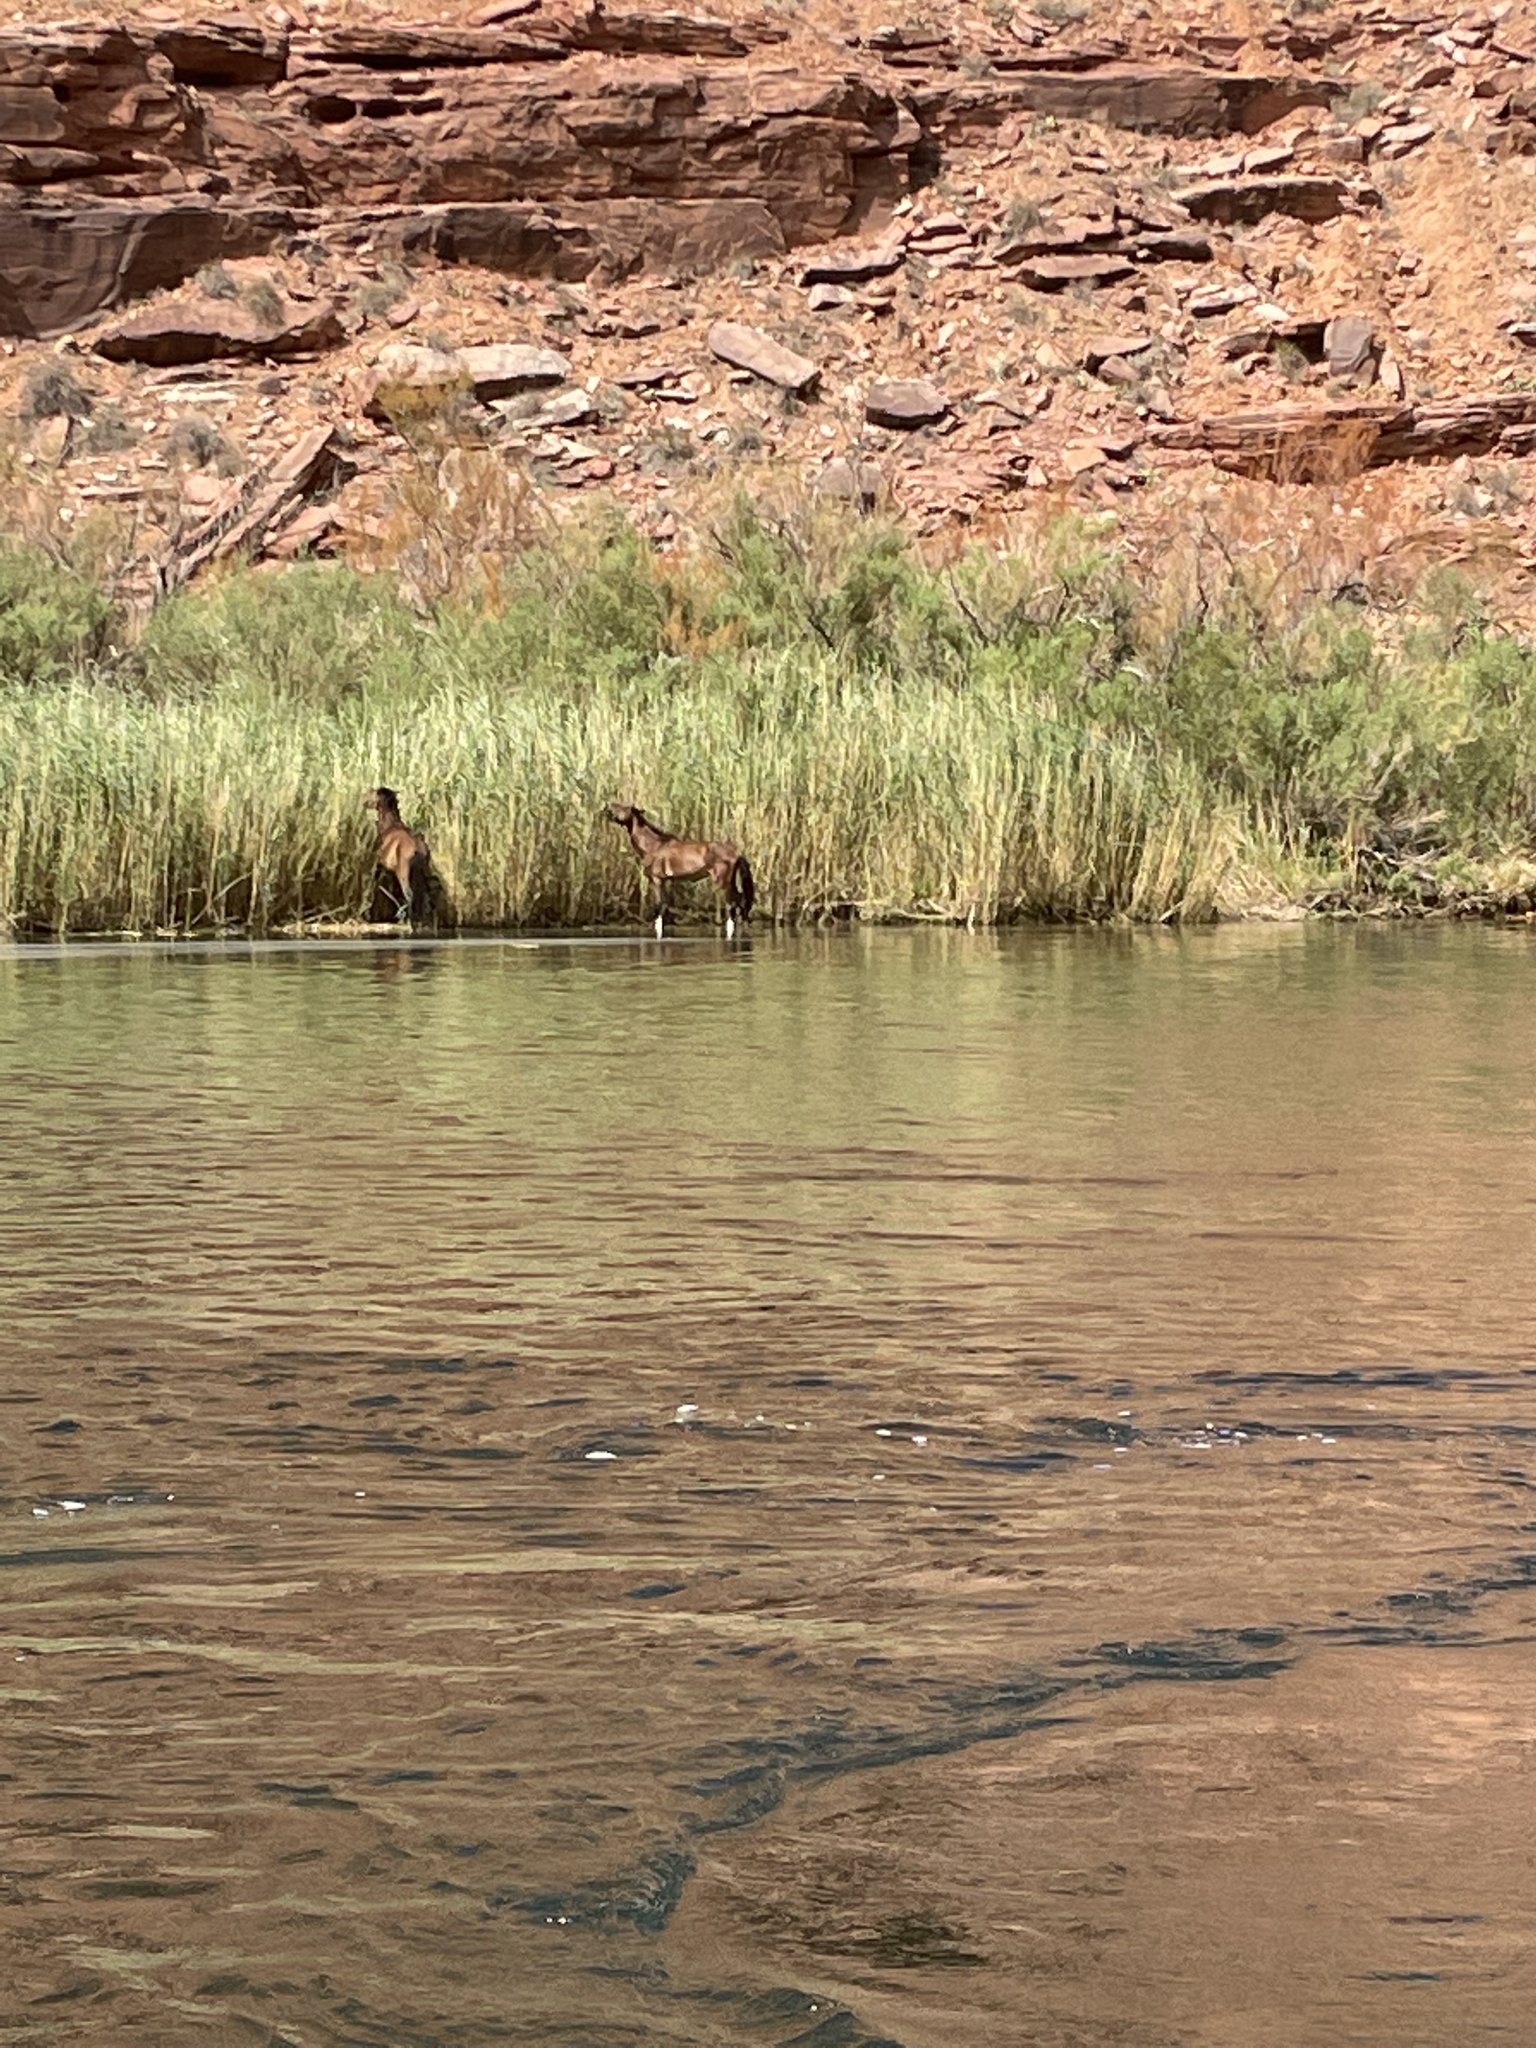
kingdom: Animalia
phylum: Chordata
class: Mammalia
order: Perissodactyla
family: Equidae
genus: Equus
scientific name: Equus caballus
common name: Horse
